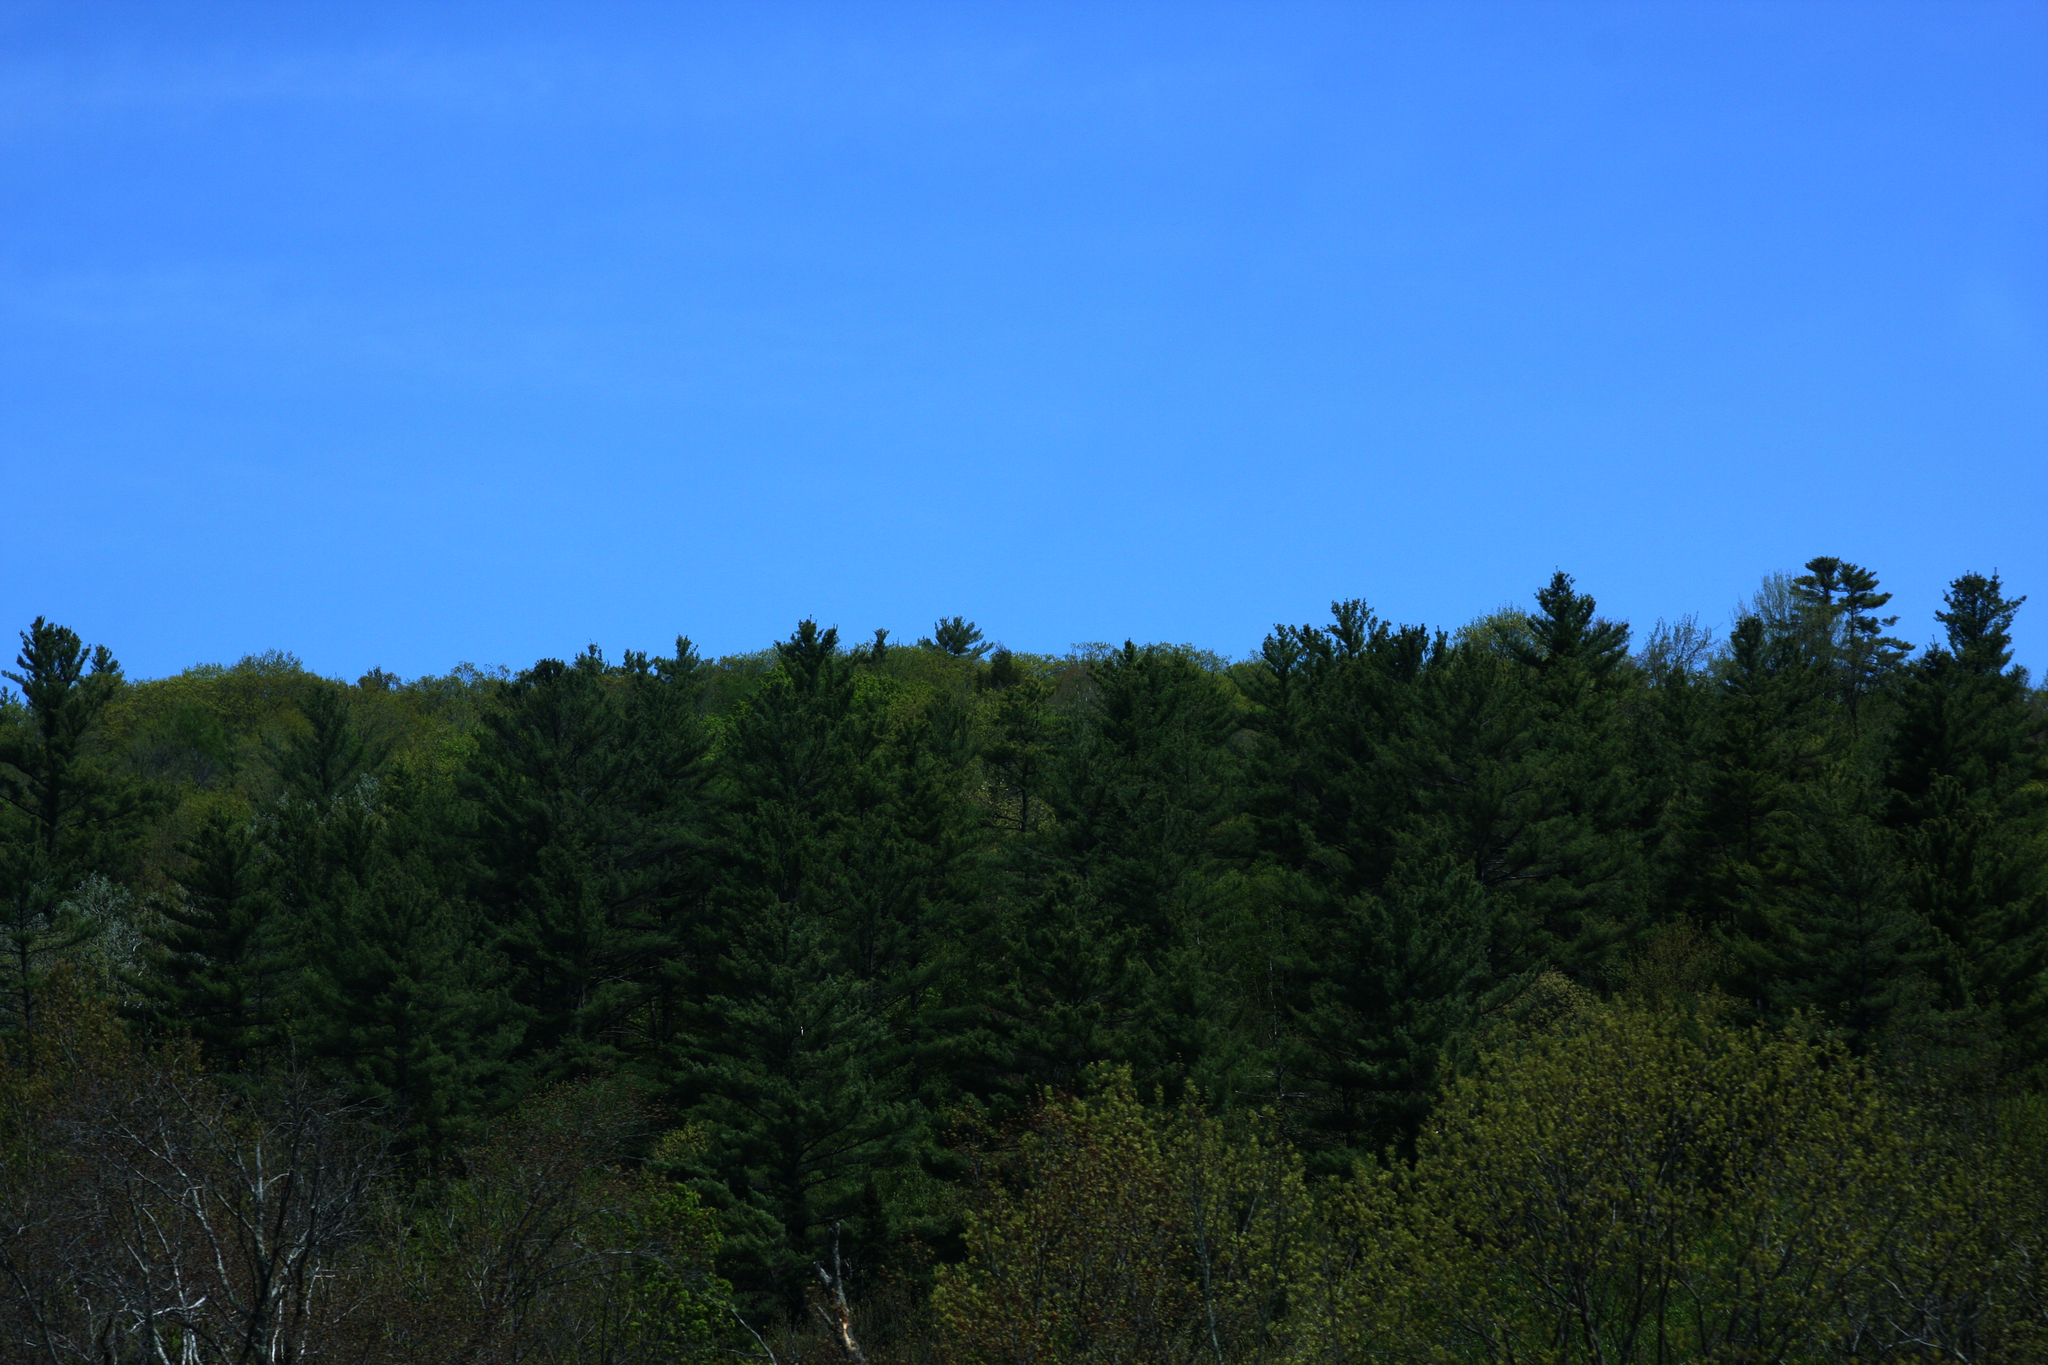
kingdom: Plantae
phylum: Tracheophyta
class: Pinopsida
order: Pinales
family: Pinaceae
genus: Pinus
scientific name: Pinus strobus
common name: Weymouth pine
